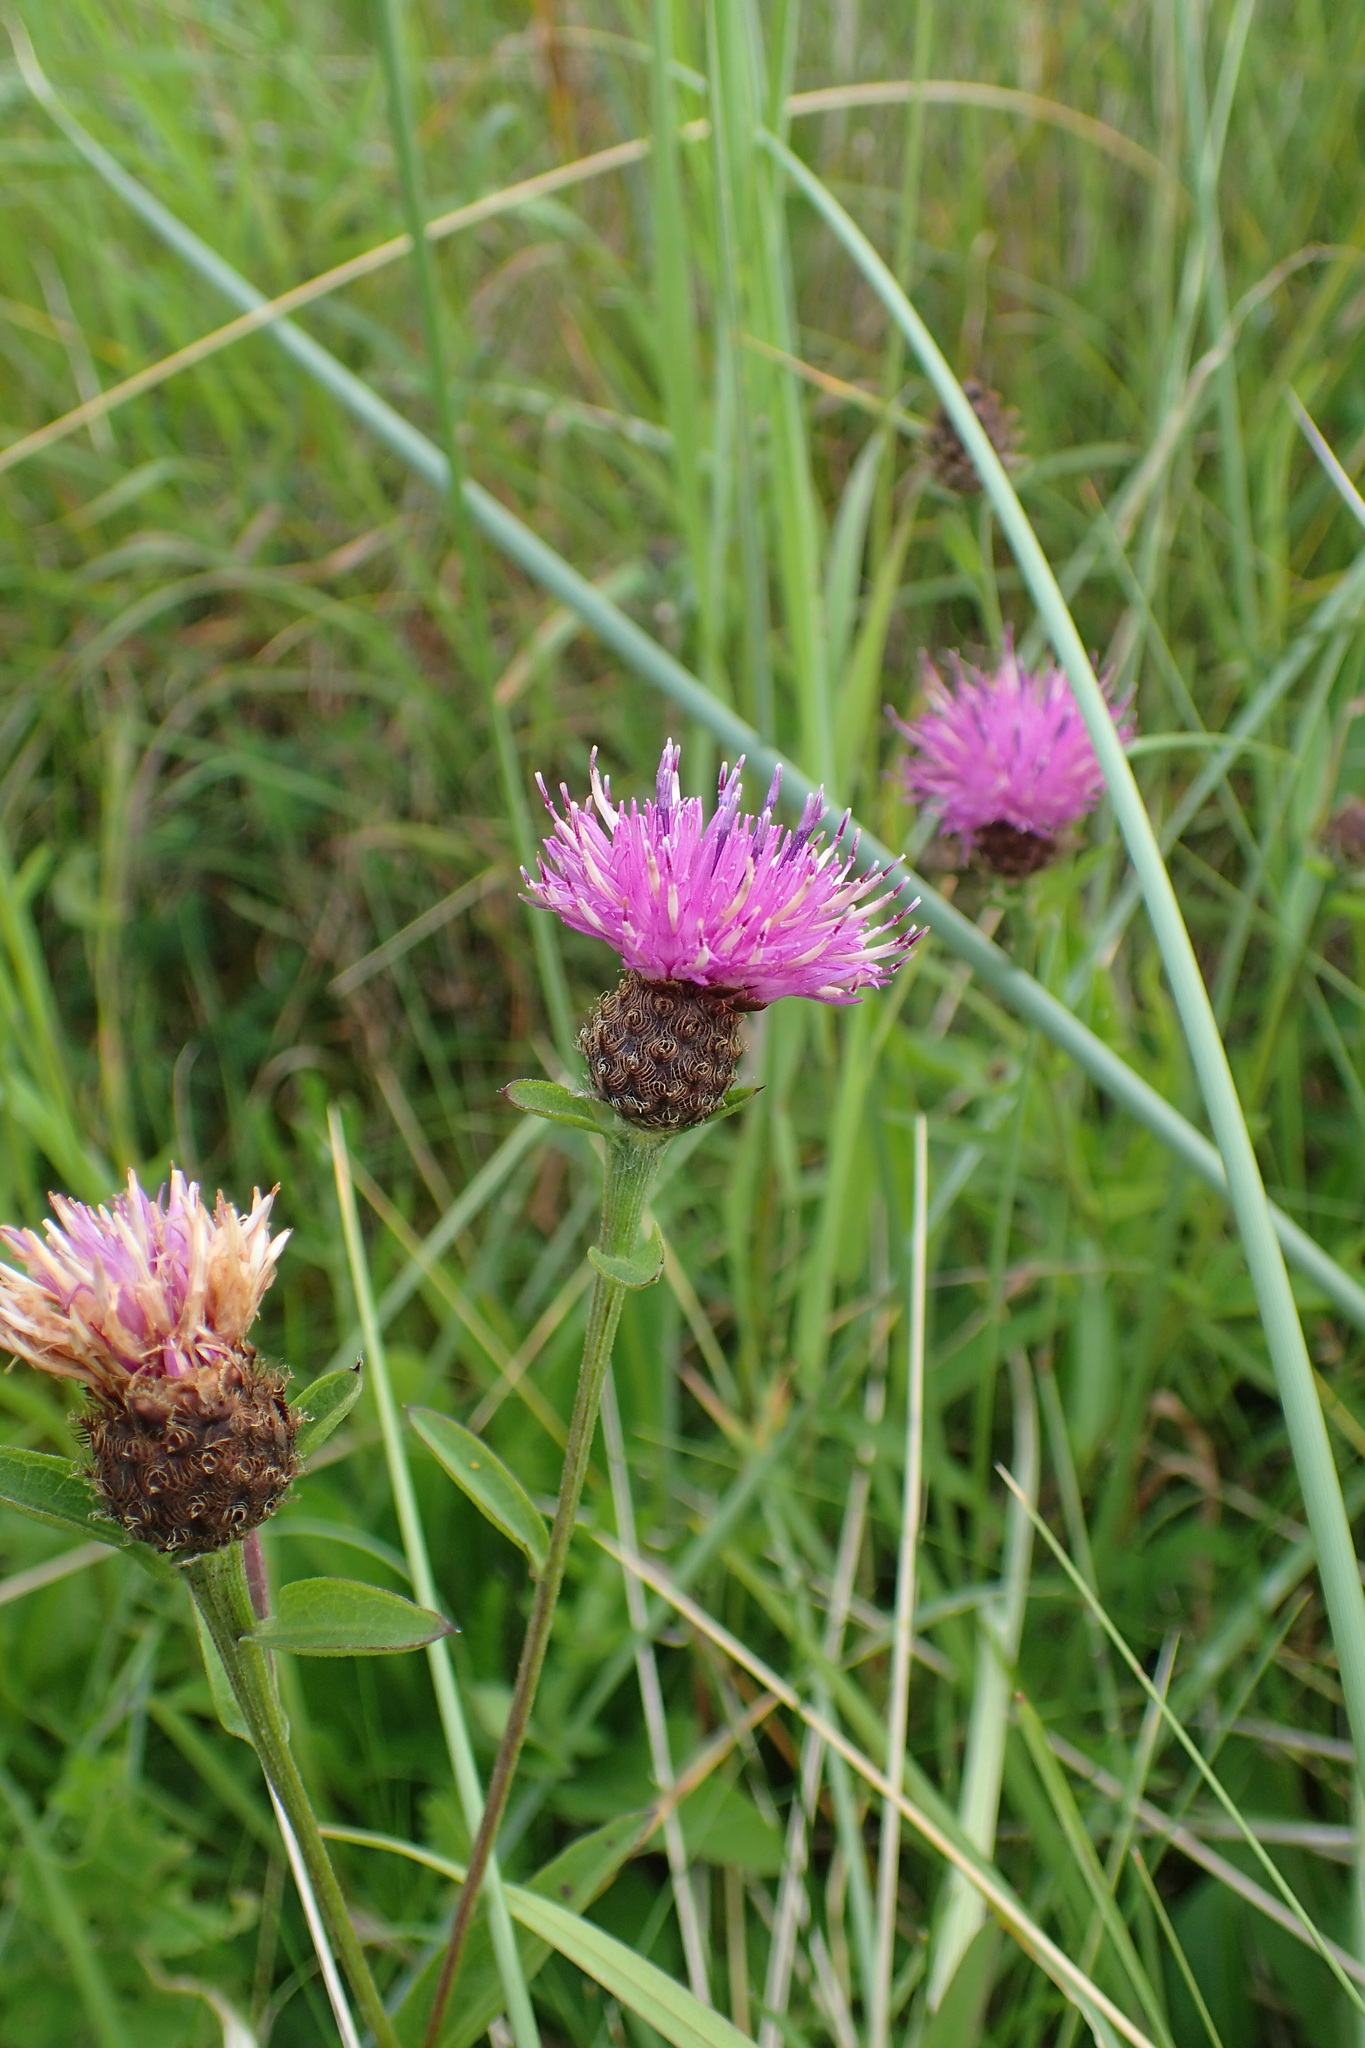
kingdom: Plantae
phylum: Tracheophyta
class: Magnoliopsida
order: Asterales
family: Asteraceae
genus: Centaurea
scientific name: Centaurea nigra
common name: Lesser knapweed
